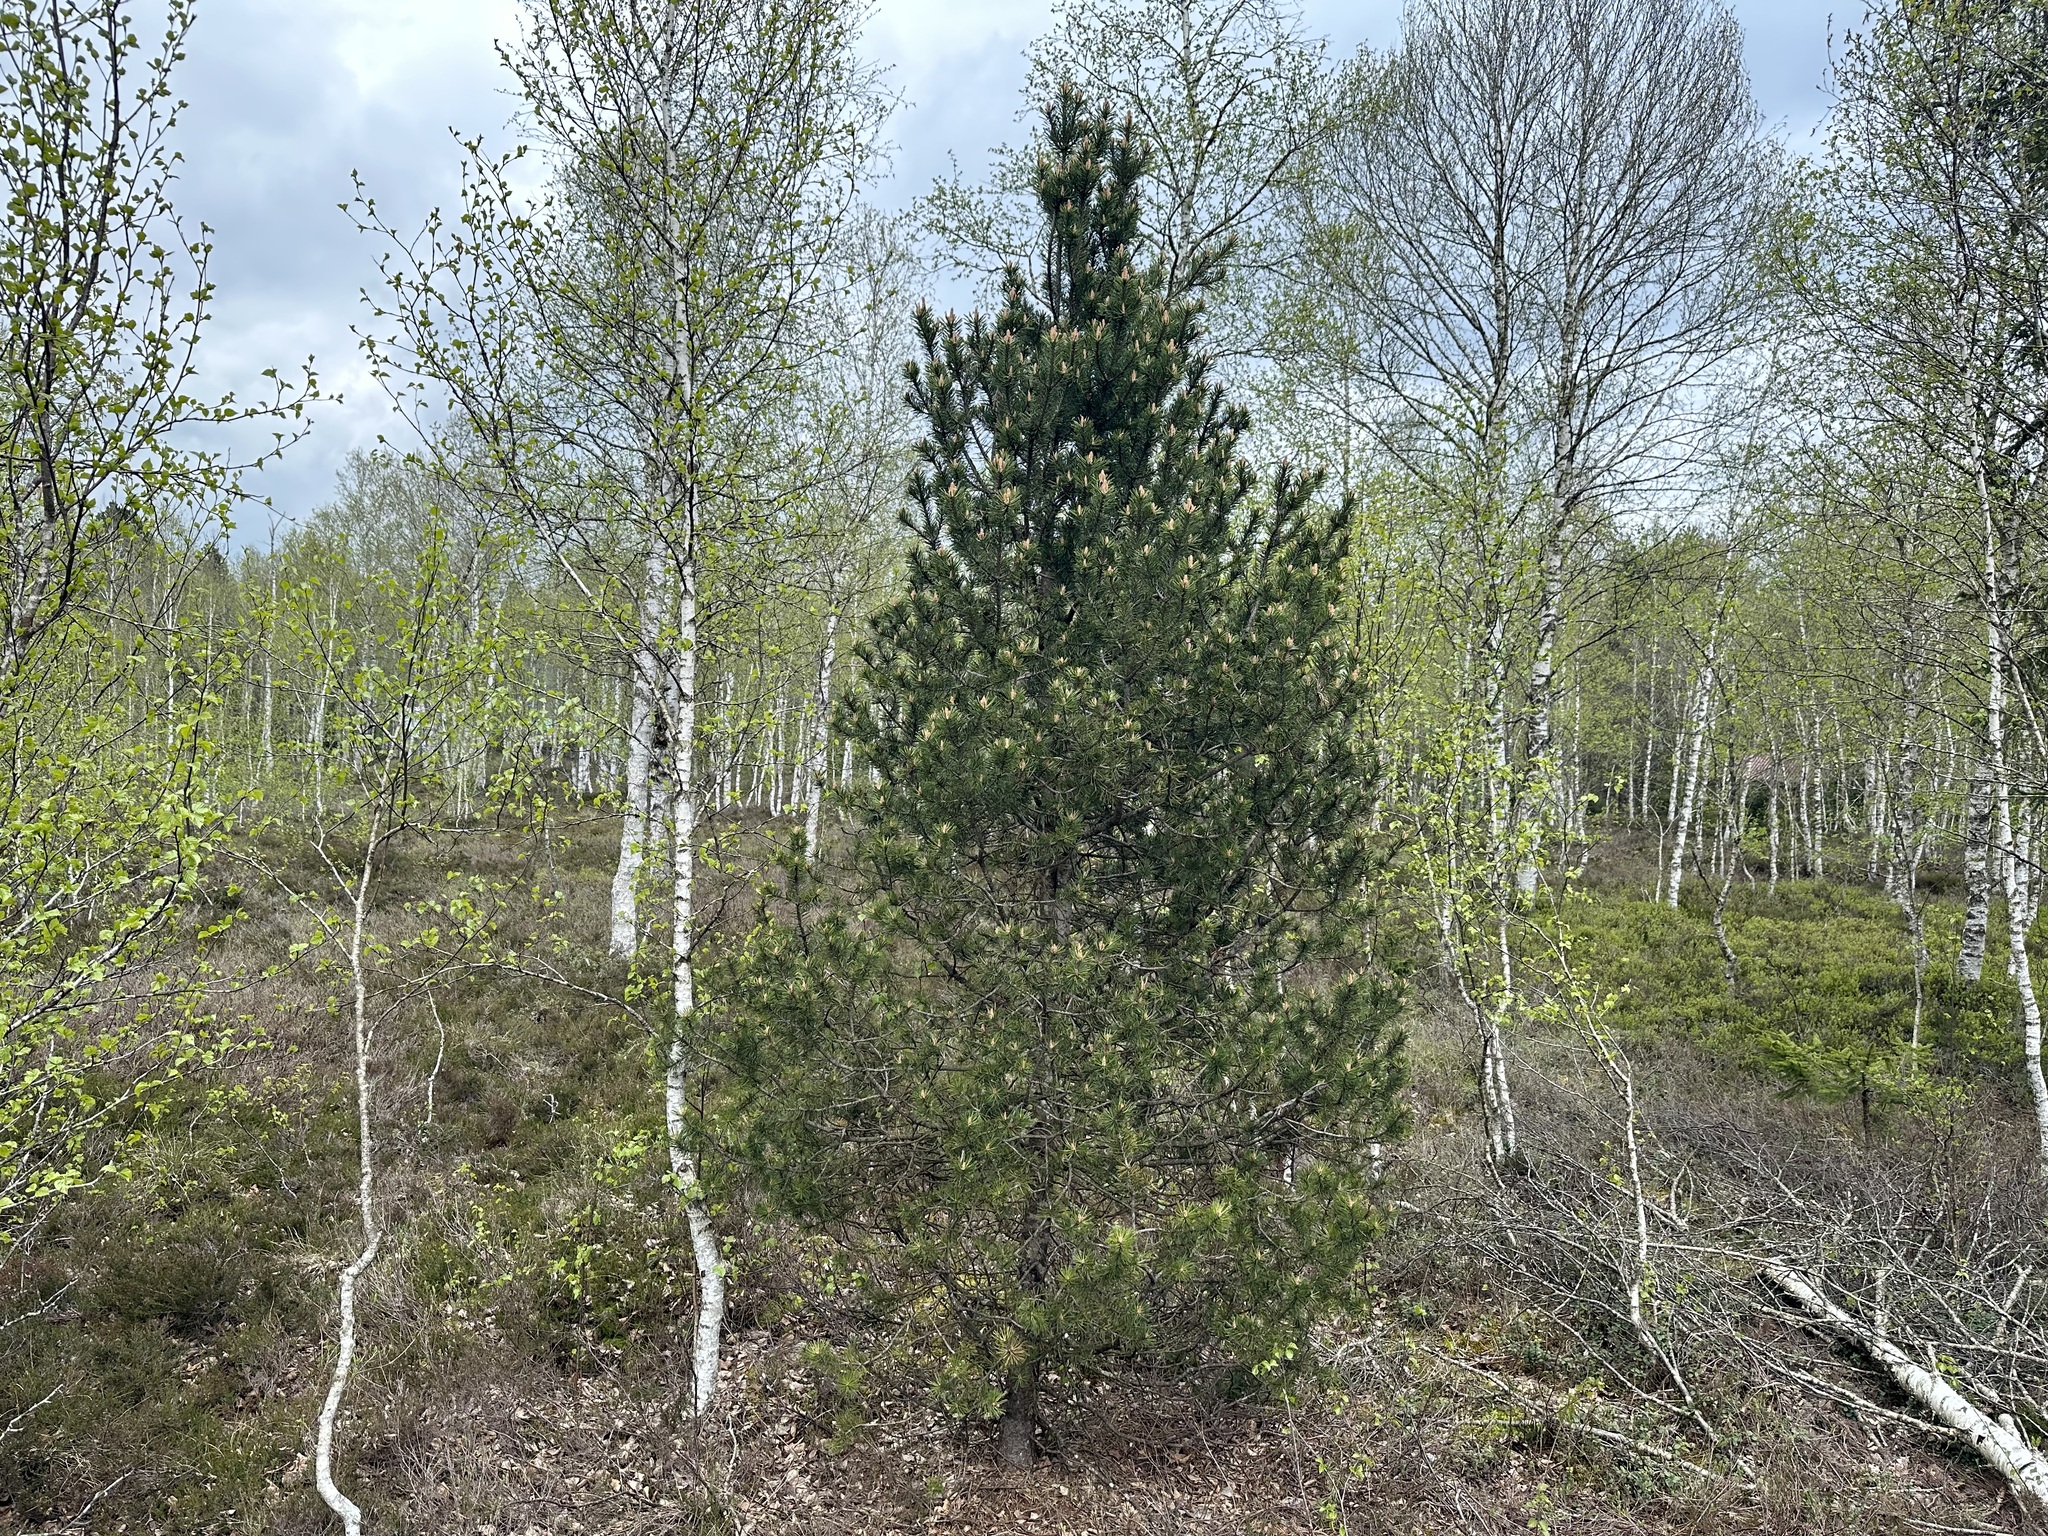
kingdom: Plantae
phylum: Tracheophyta
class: Pinopsida
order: Pinales
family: Pinaceae
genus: Pinus
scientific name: Pinus uncinata
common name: Mountain pine
